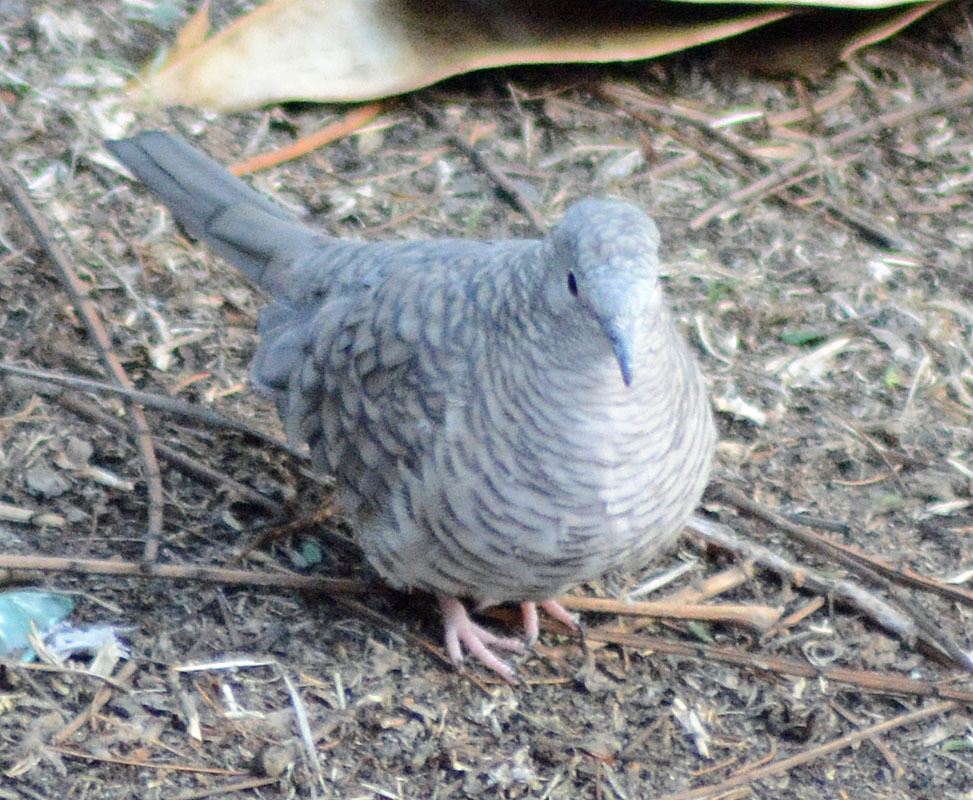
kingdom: Animalia
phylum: Chordata
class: Aves
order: Columbiformes
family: Columbidae
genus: Columbina
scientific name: Columbina inca
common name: Inca dove
